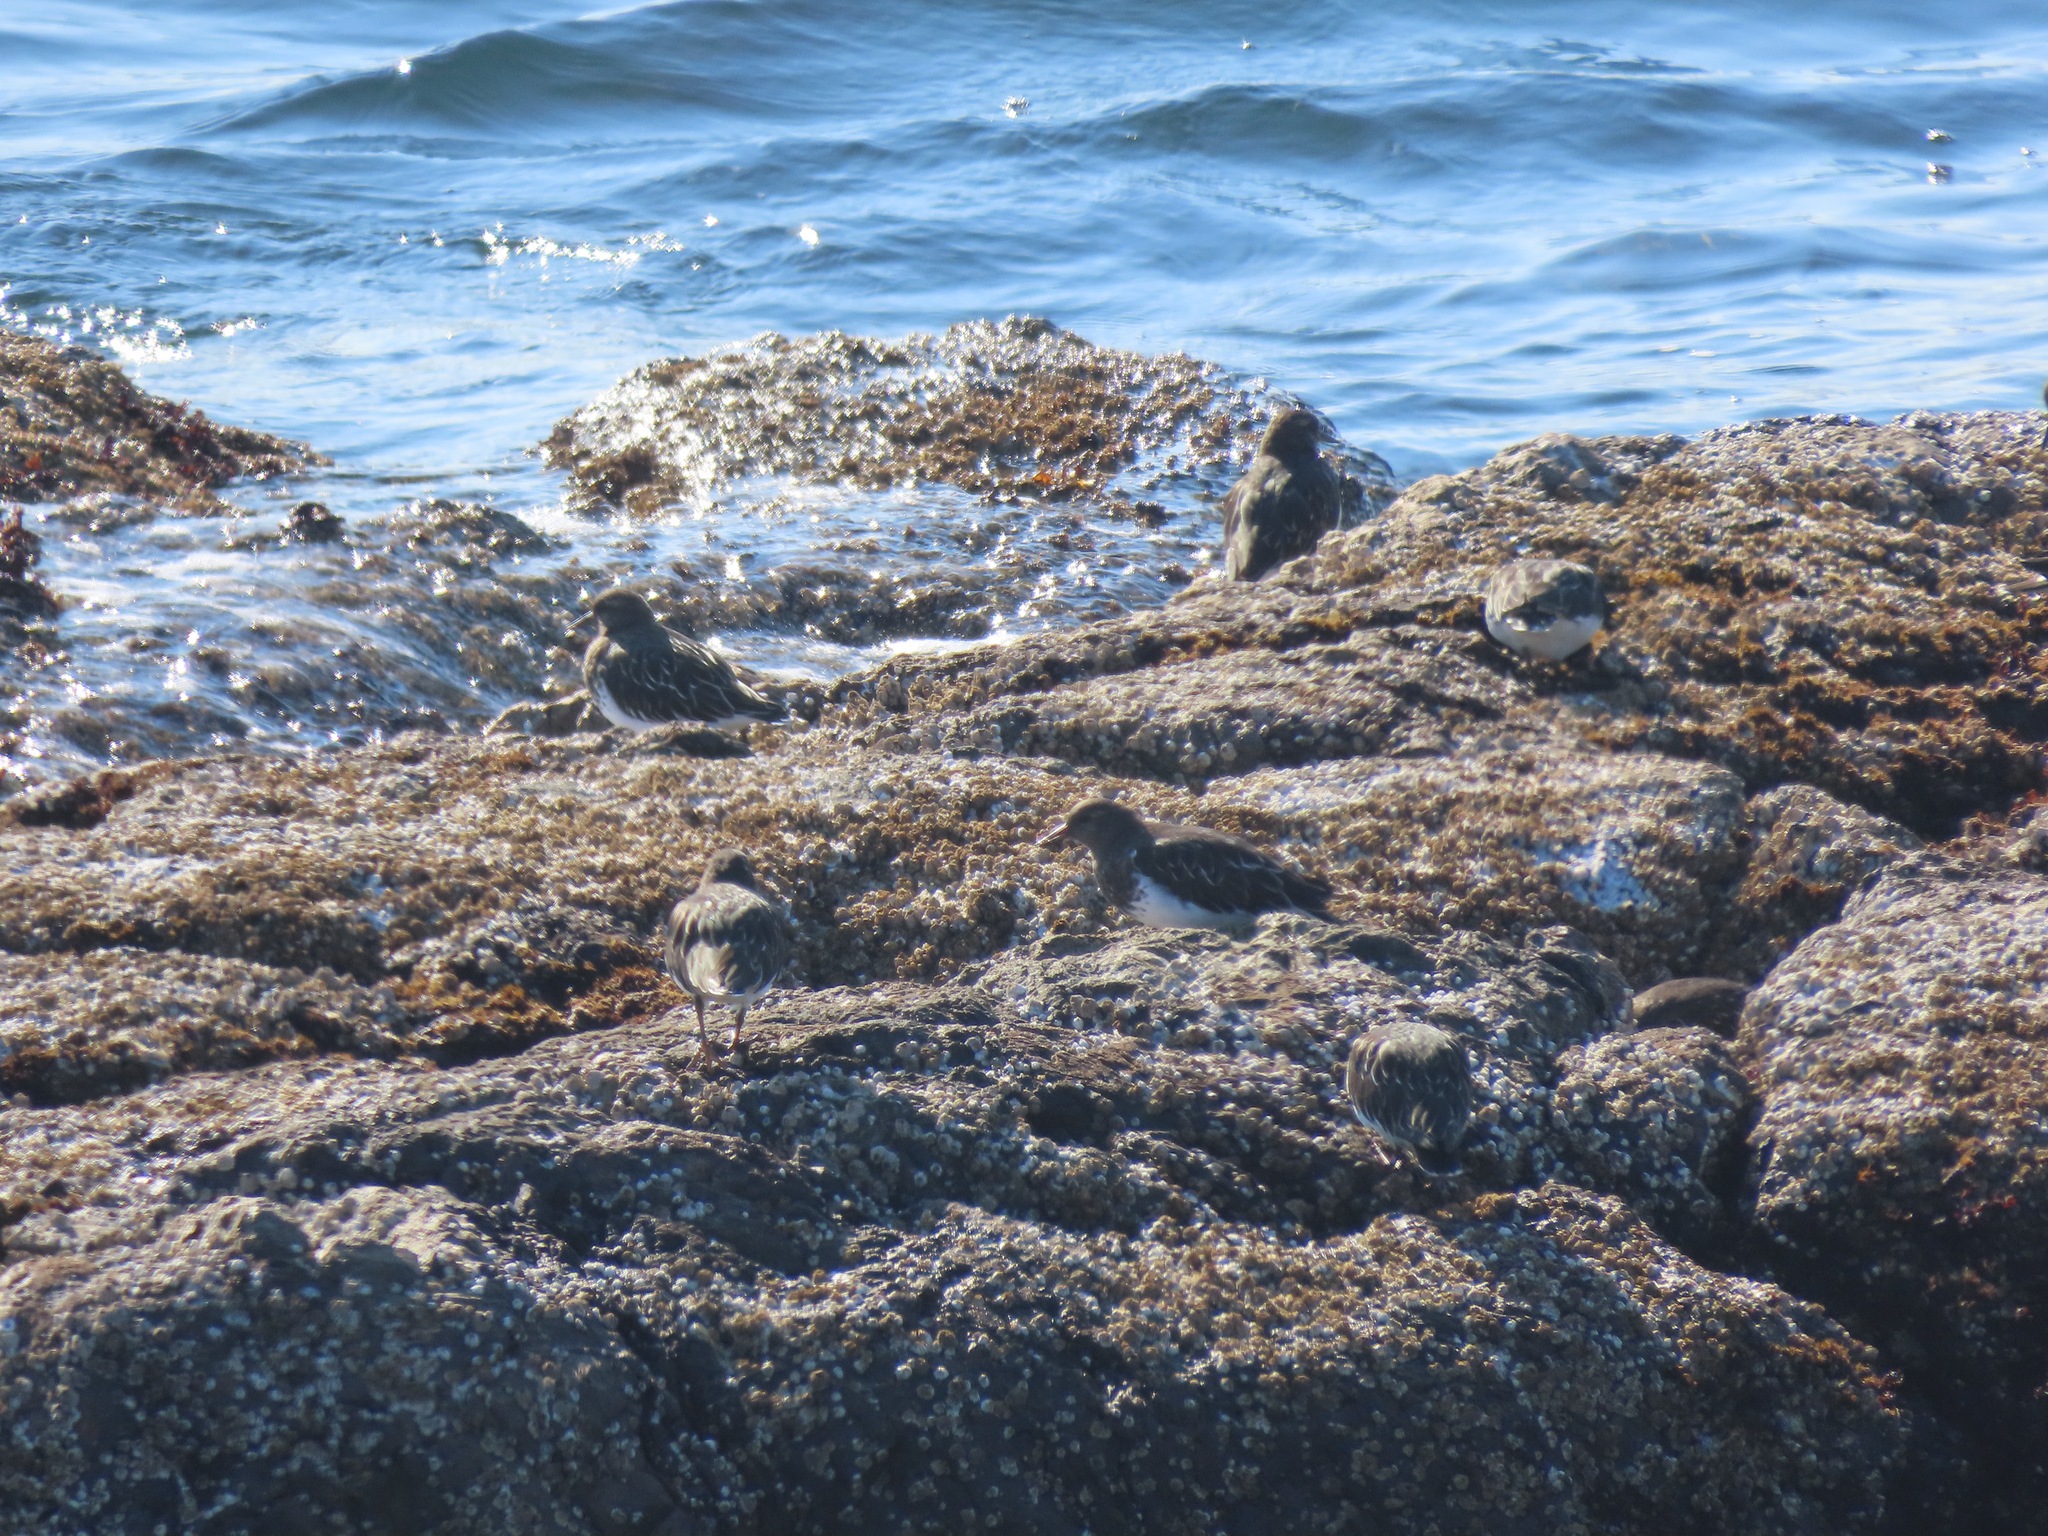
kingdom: Animalia
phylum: Chordata
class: Aves
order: Charadriiformes
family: Scolopacidae
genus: Arenaria
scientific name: Arenaria melanocephala
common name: Black turnstone
